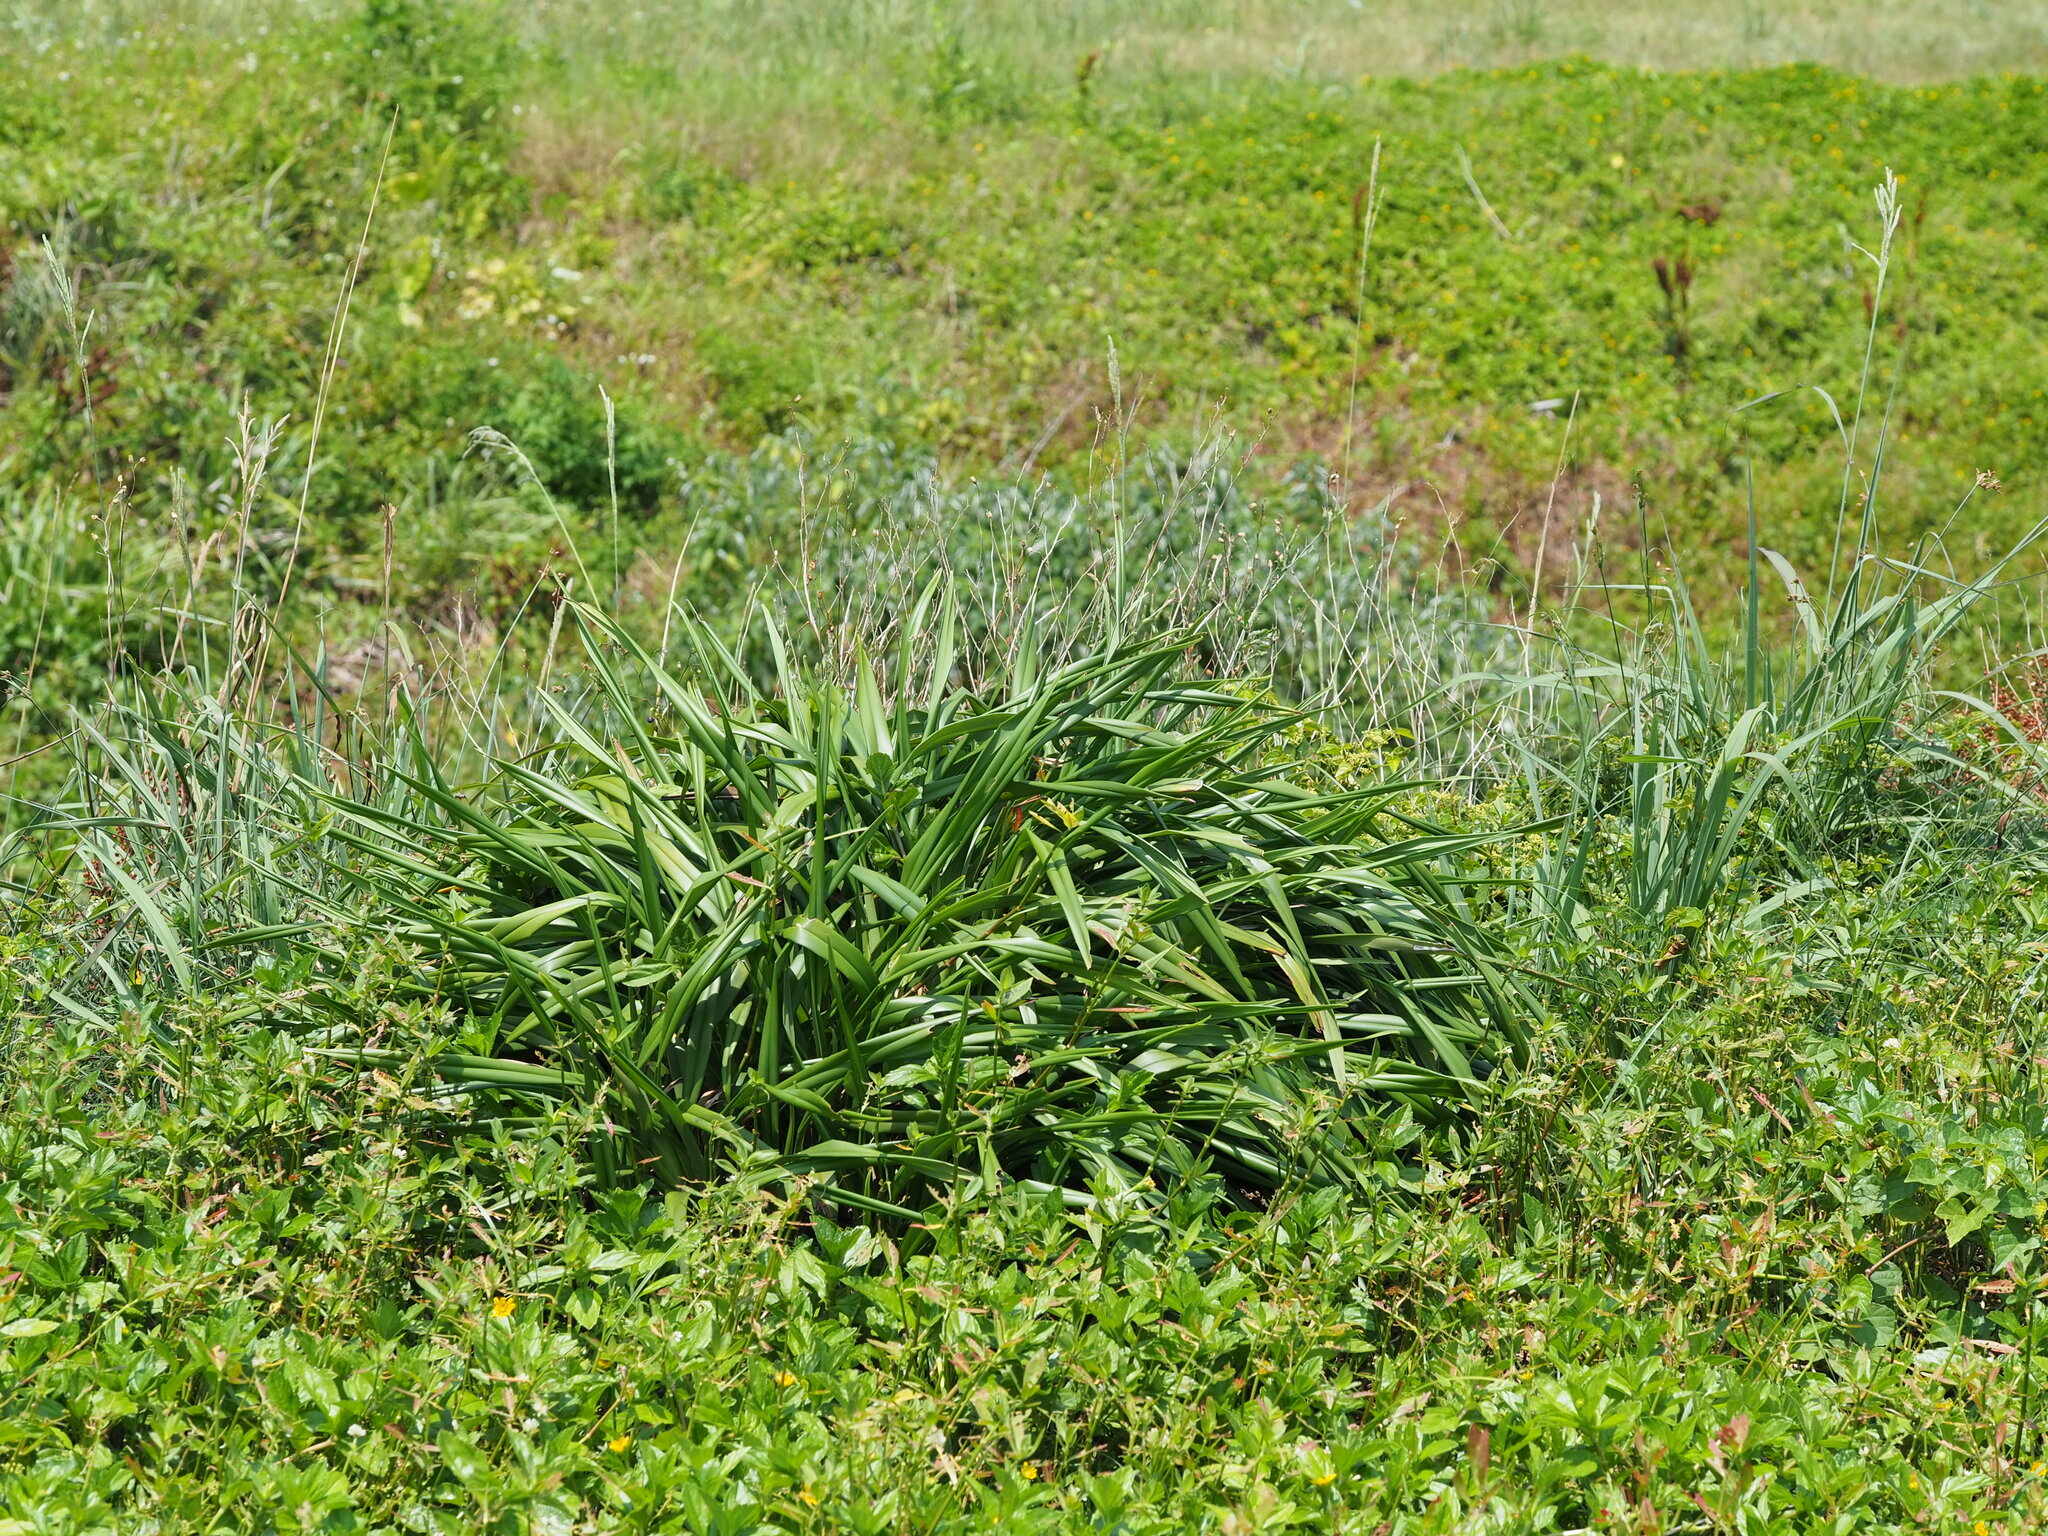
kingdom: Plantae
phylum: Tracheophyta
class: Liliopsida
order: Asparagales
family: Asphodelaceae
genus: Dianella
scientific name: Dianella ensifolia
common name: New zealand lilyplant
